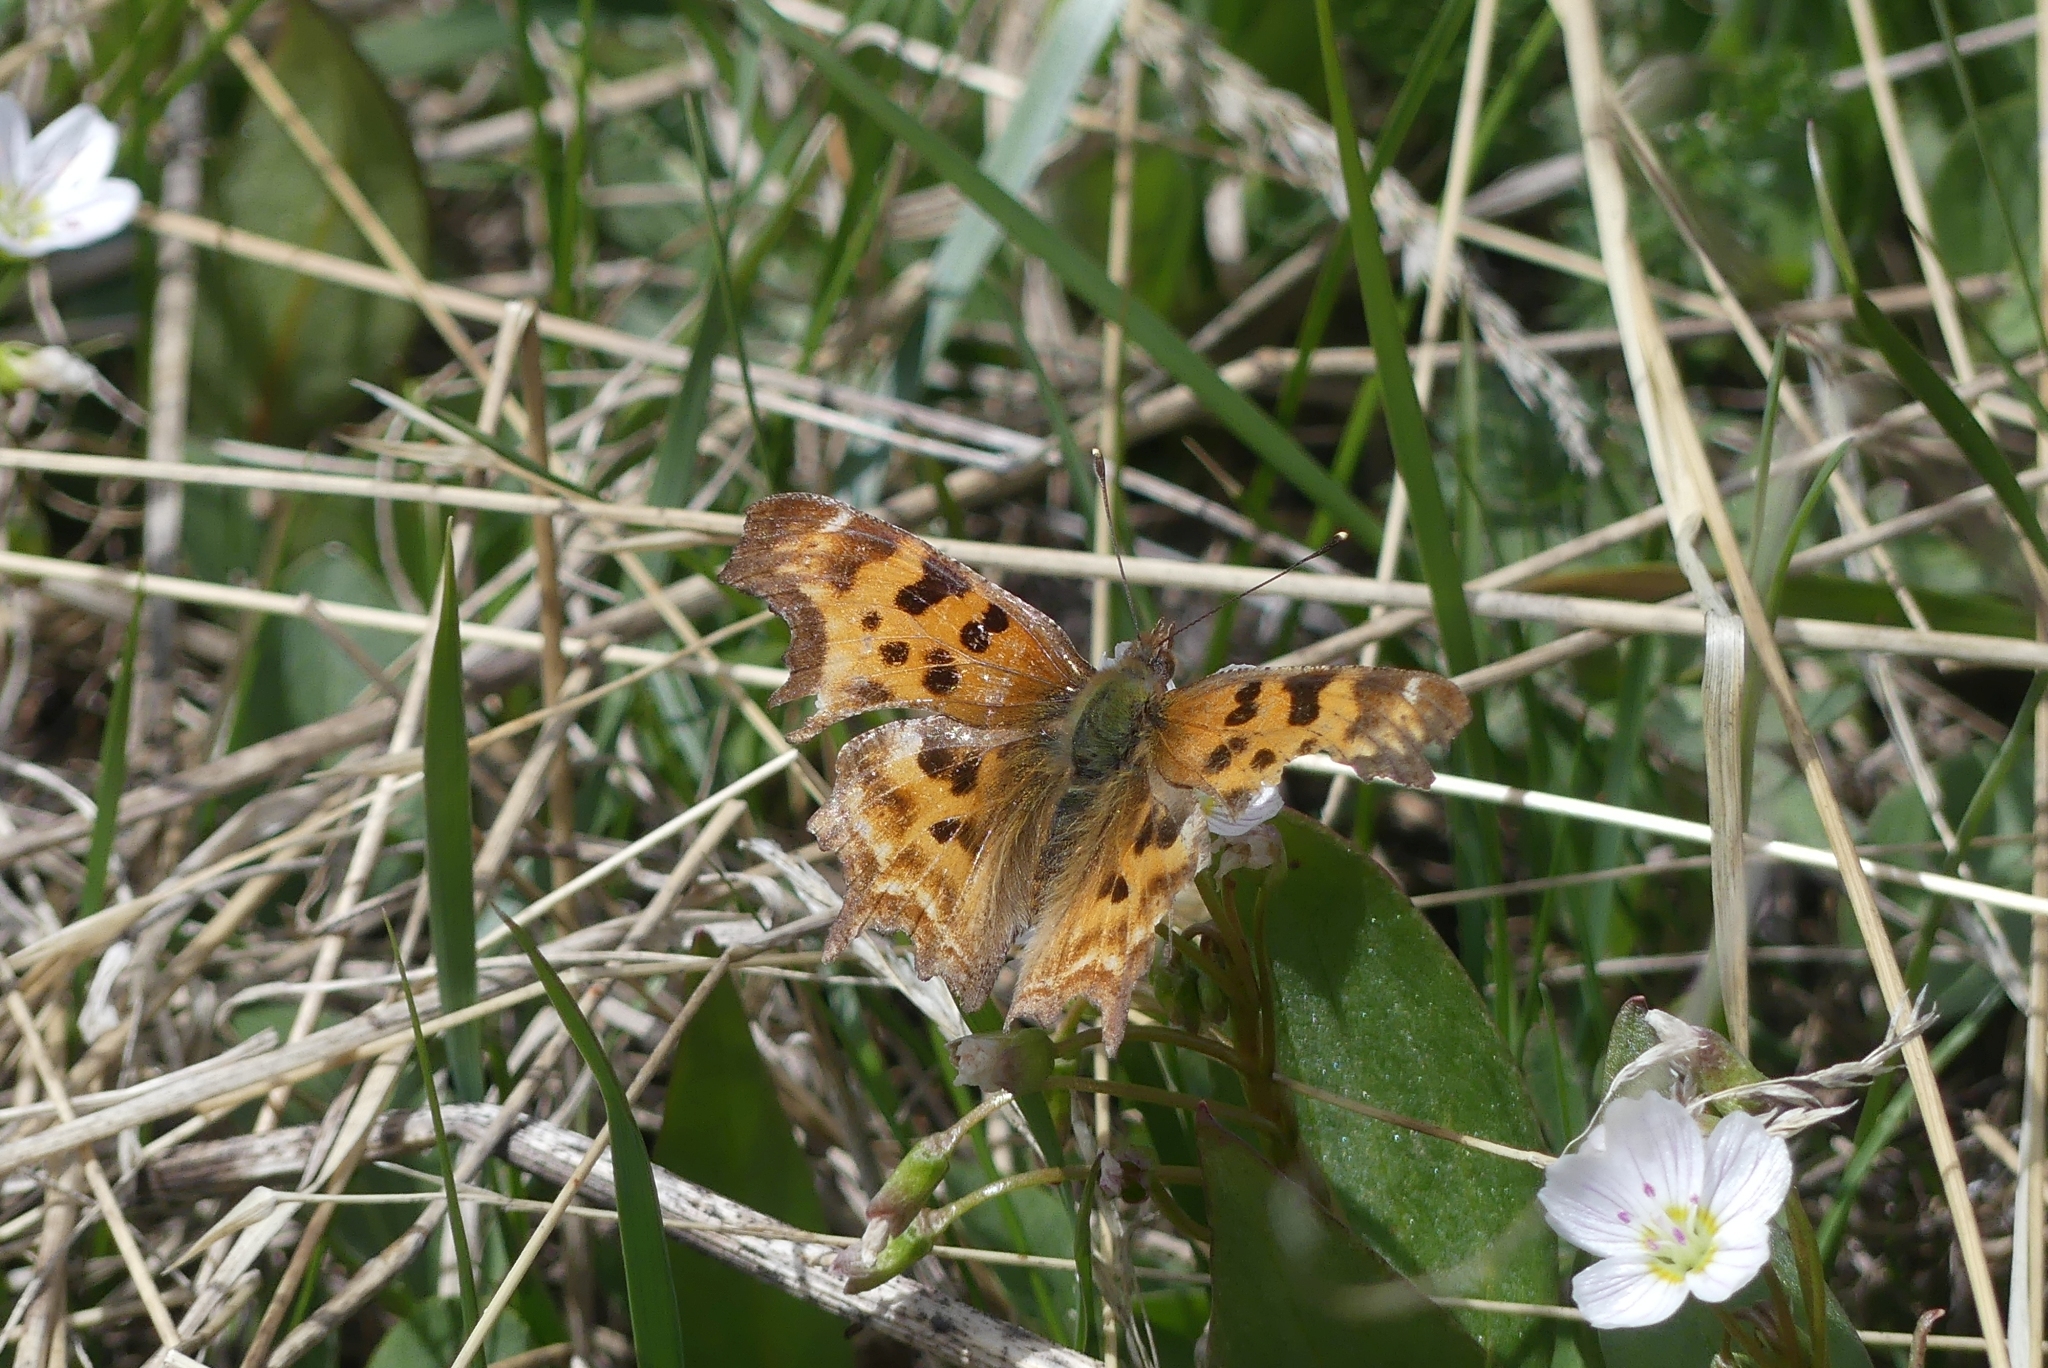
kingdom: Animalia
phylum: Arthropoda
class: Insecta
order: Lepidoptera
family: Nymphalidae
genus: Polygonia
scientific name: Polygonia satyrus
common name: Satyr angle wing
